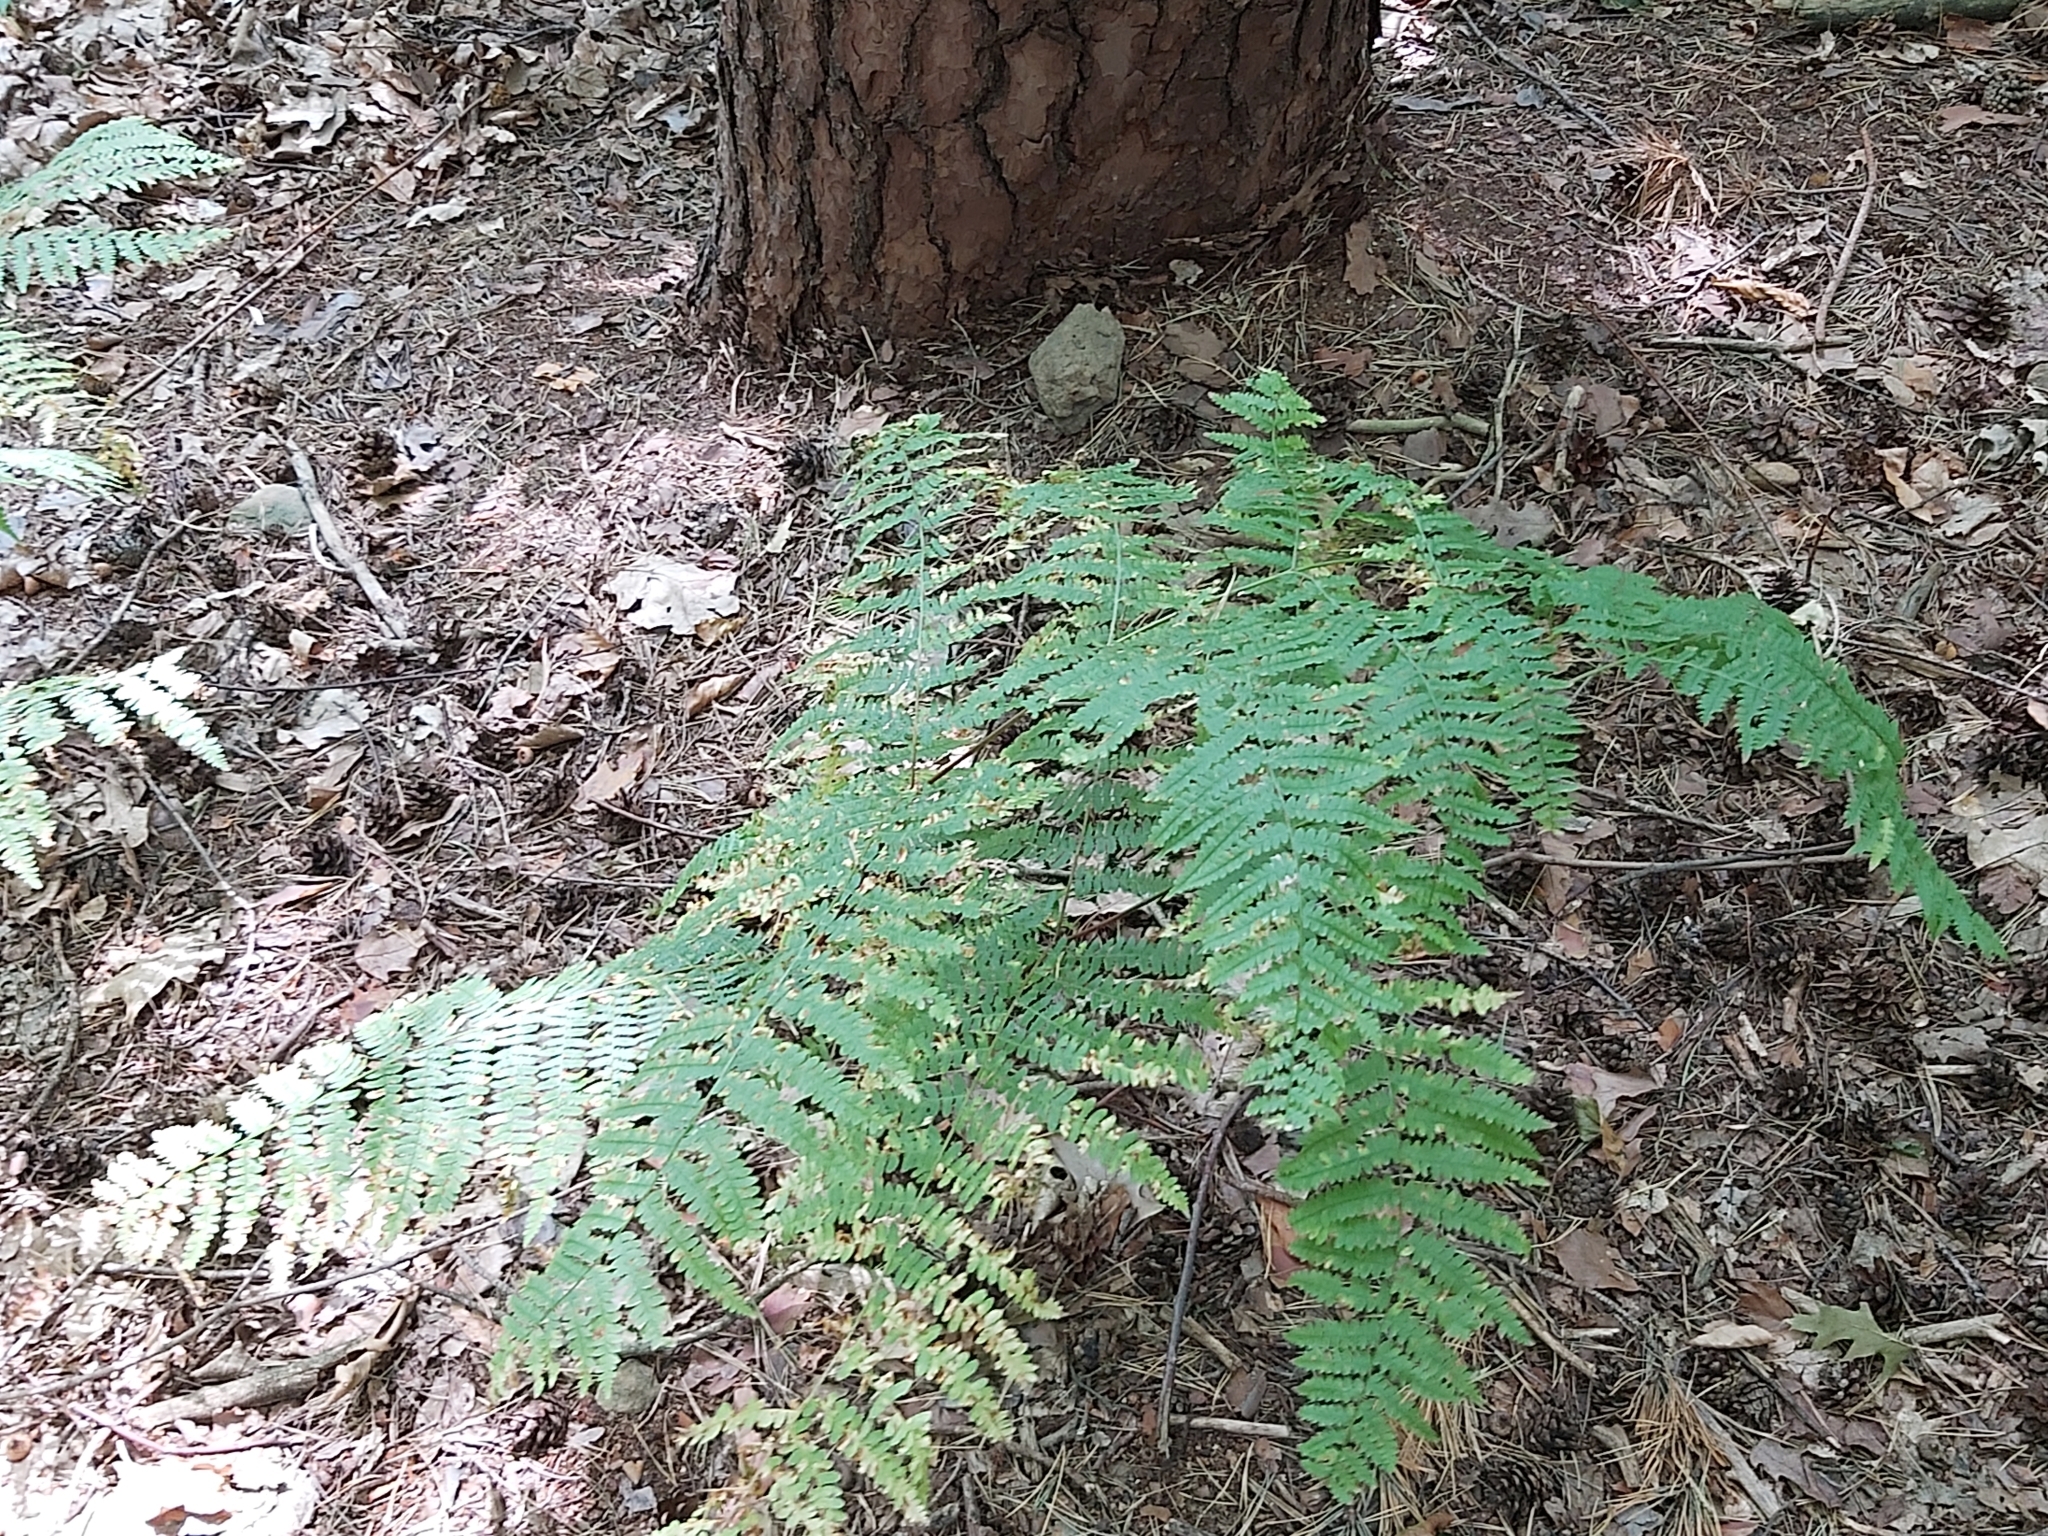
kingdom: Plantae
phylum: Tracheophyta
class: Polypodiopsida
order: Polypodiales
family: Dennstaedtiaceae
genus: Pteridium
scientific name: Pteridium aquilinum
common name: Bracken
